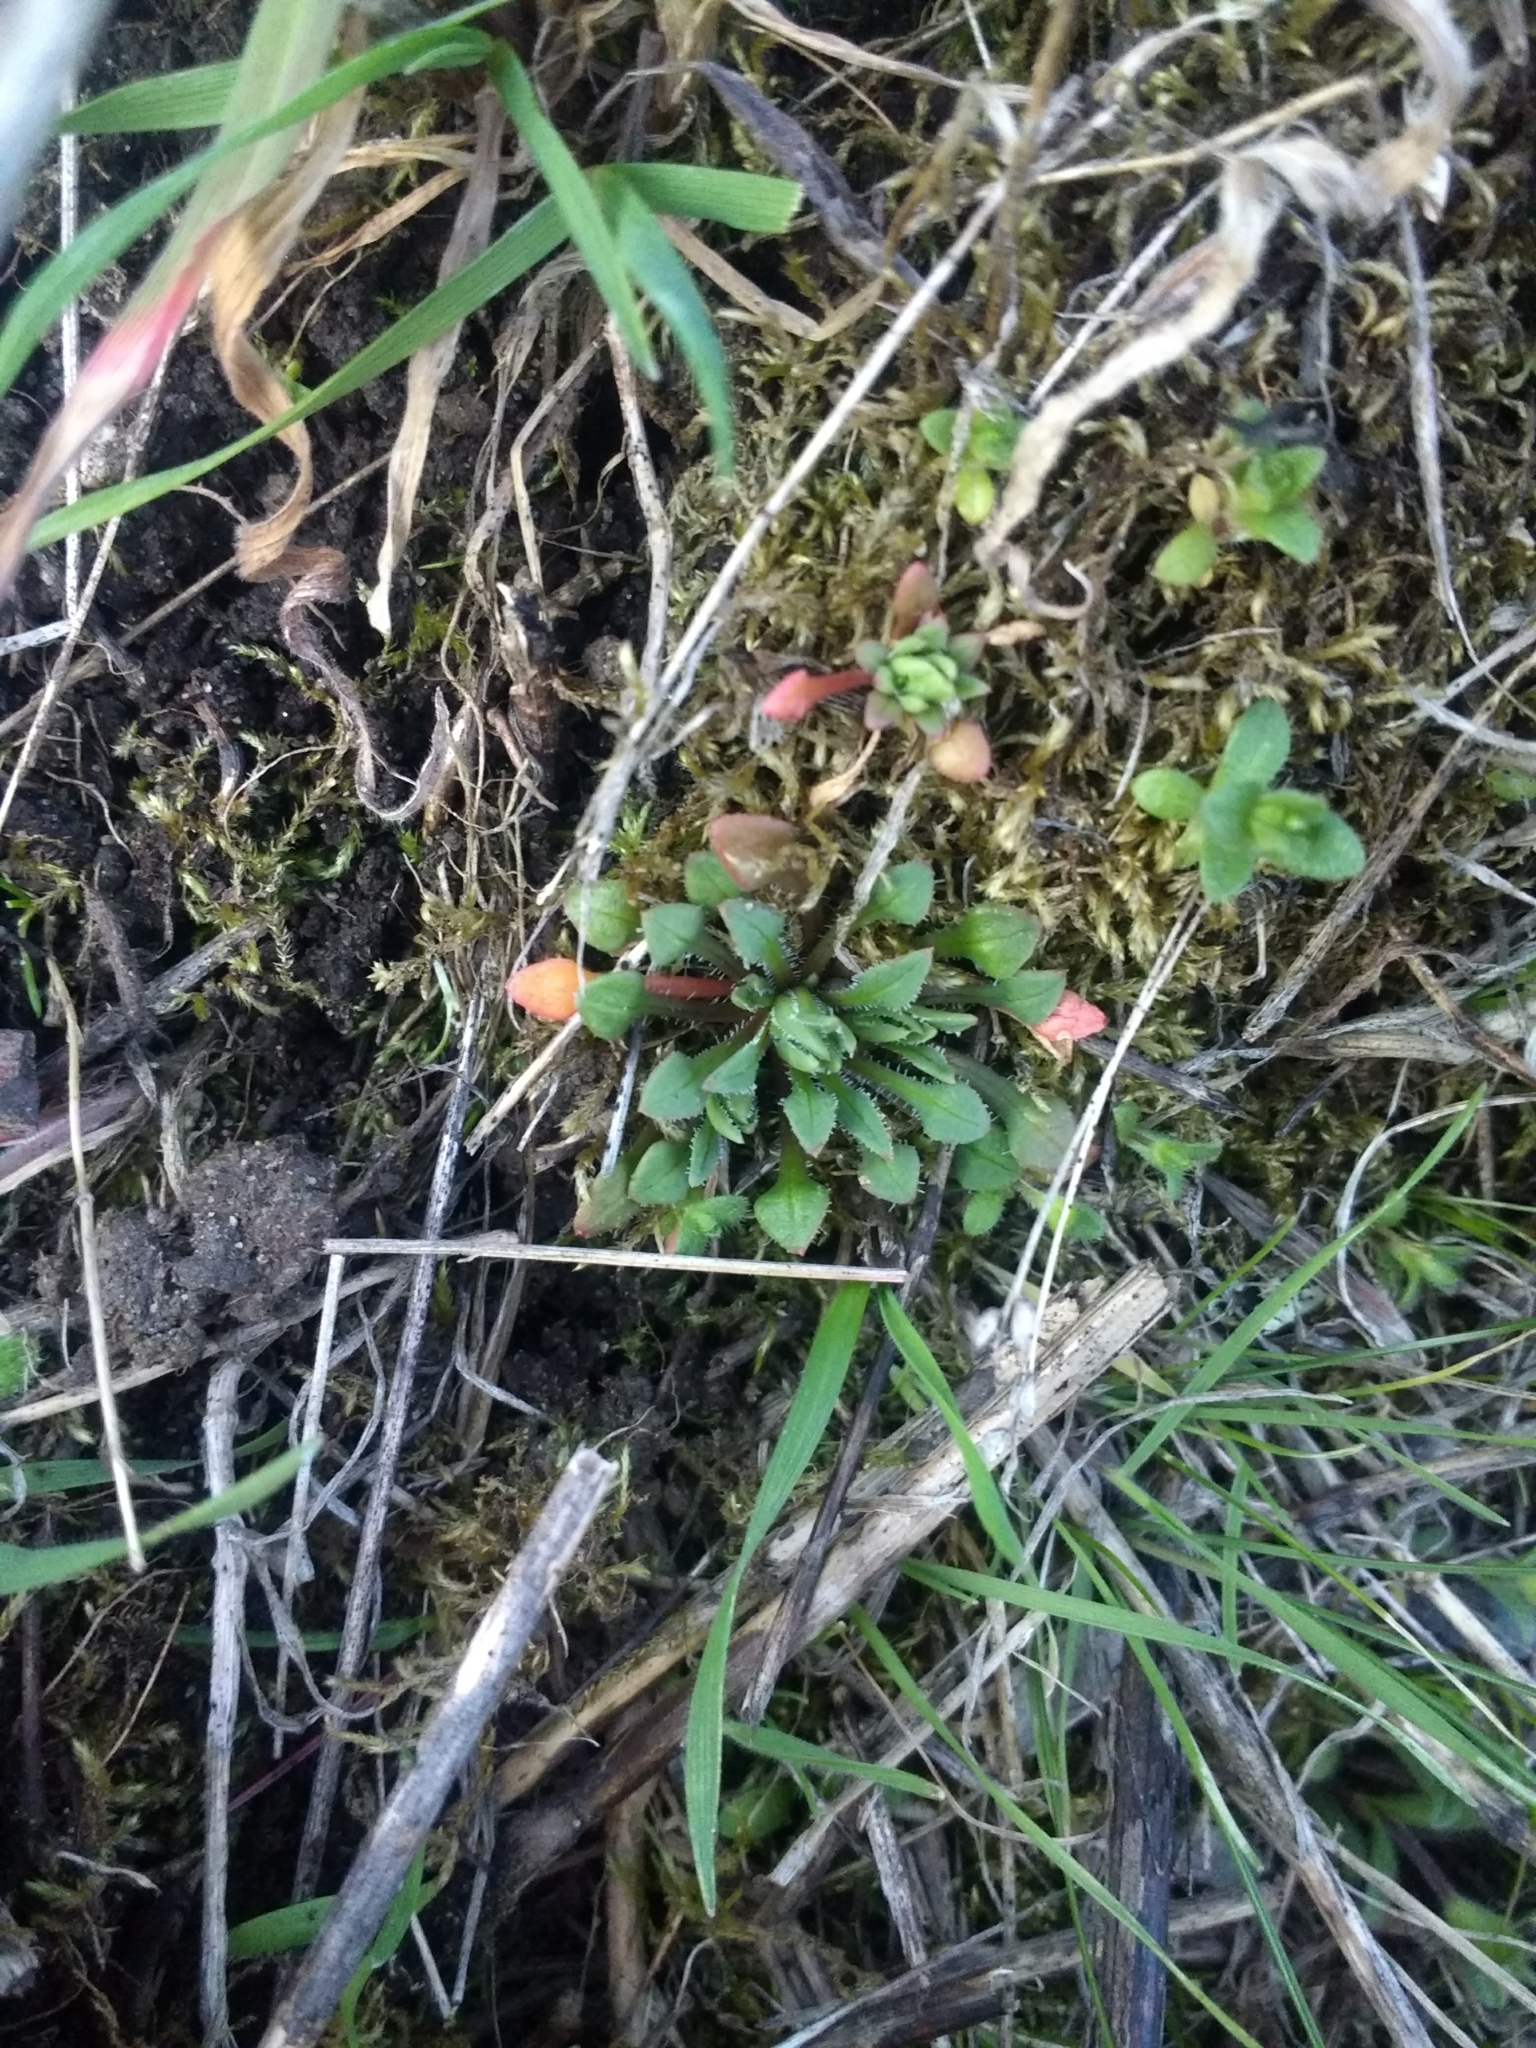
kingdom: Plantae
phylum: Tracheophyta
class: Magnoliopsida
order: Caryophyllales
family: Montiaceae
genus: Calandrinia
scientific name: Calandrinia menziesii
